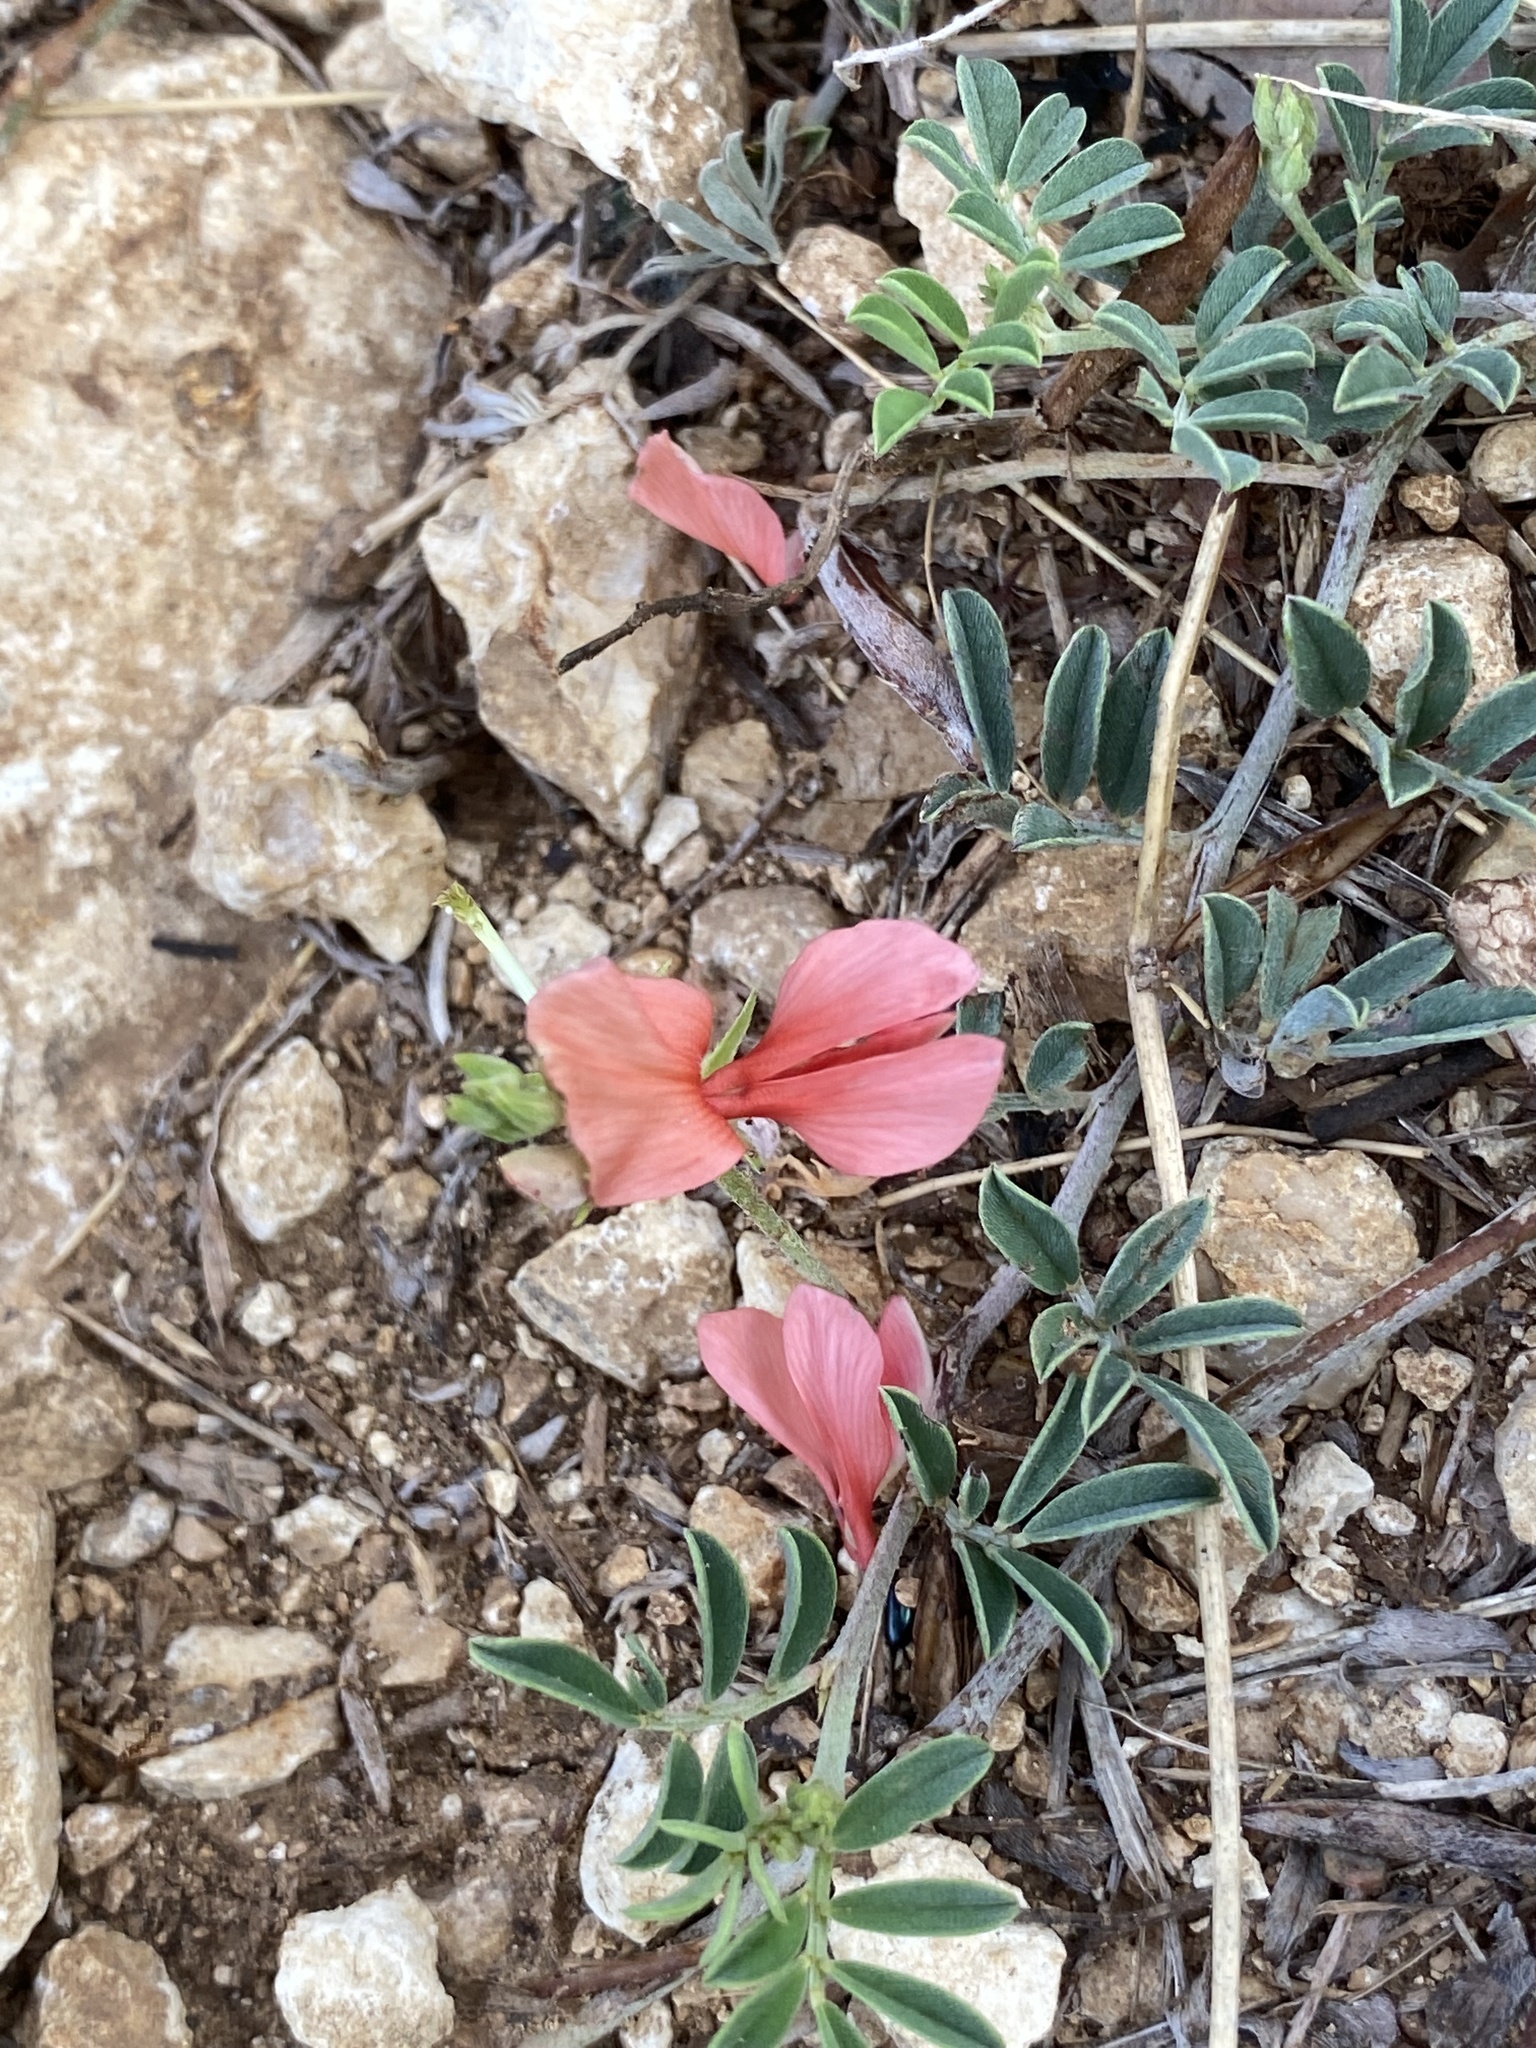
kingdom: Plantae
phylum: Tracheophyta
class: Magnoliopsida
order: Fabales
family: Fabaceae
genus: Indigofera
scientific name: Indigofera miniata
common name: Coast indigo
